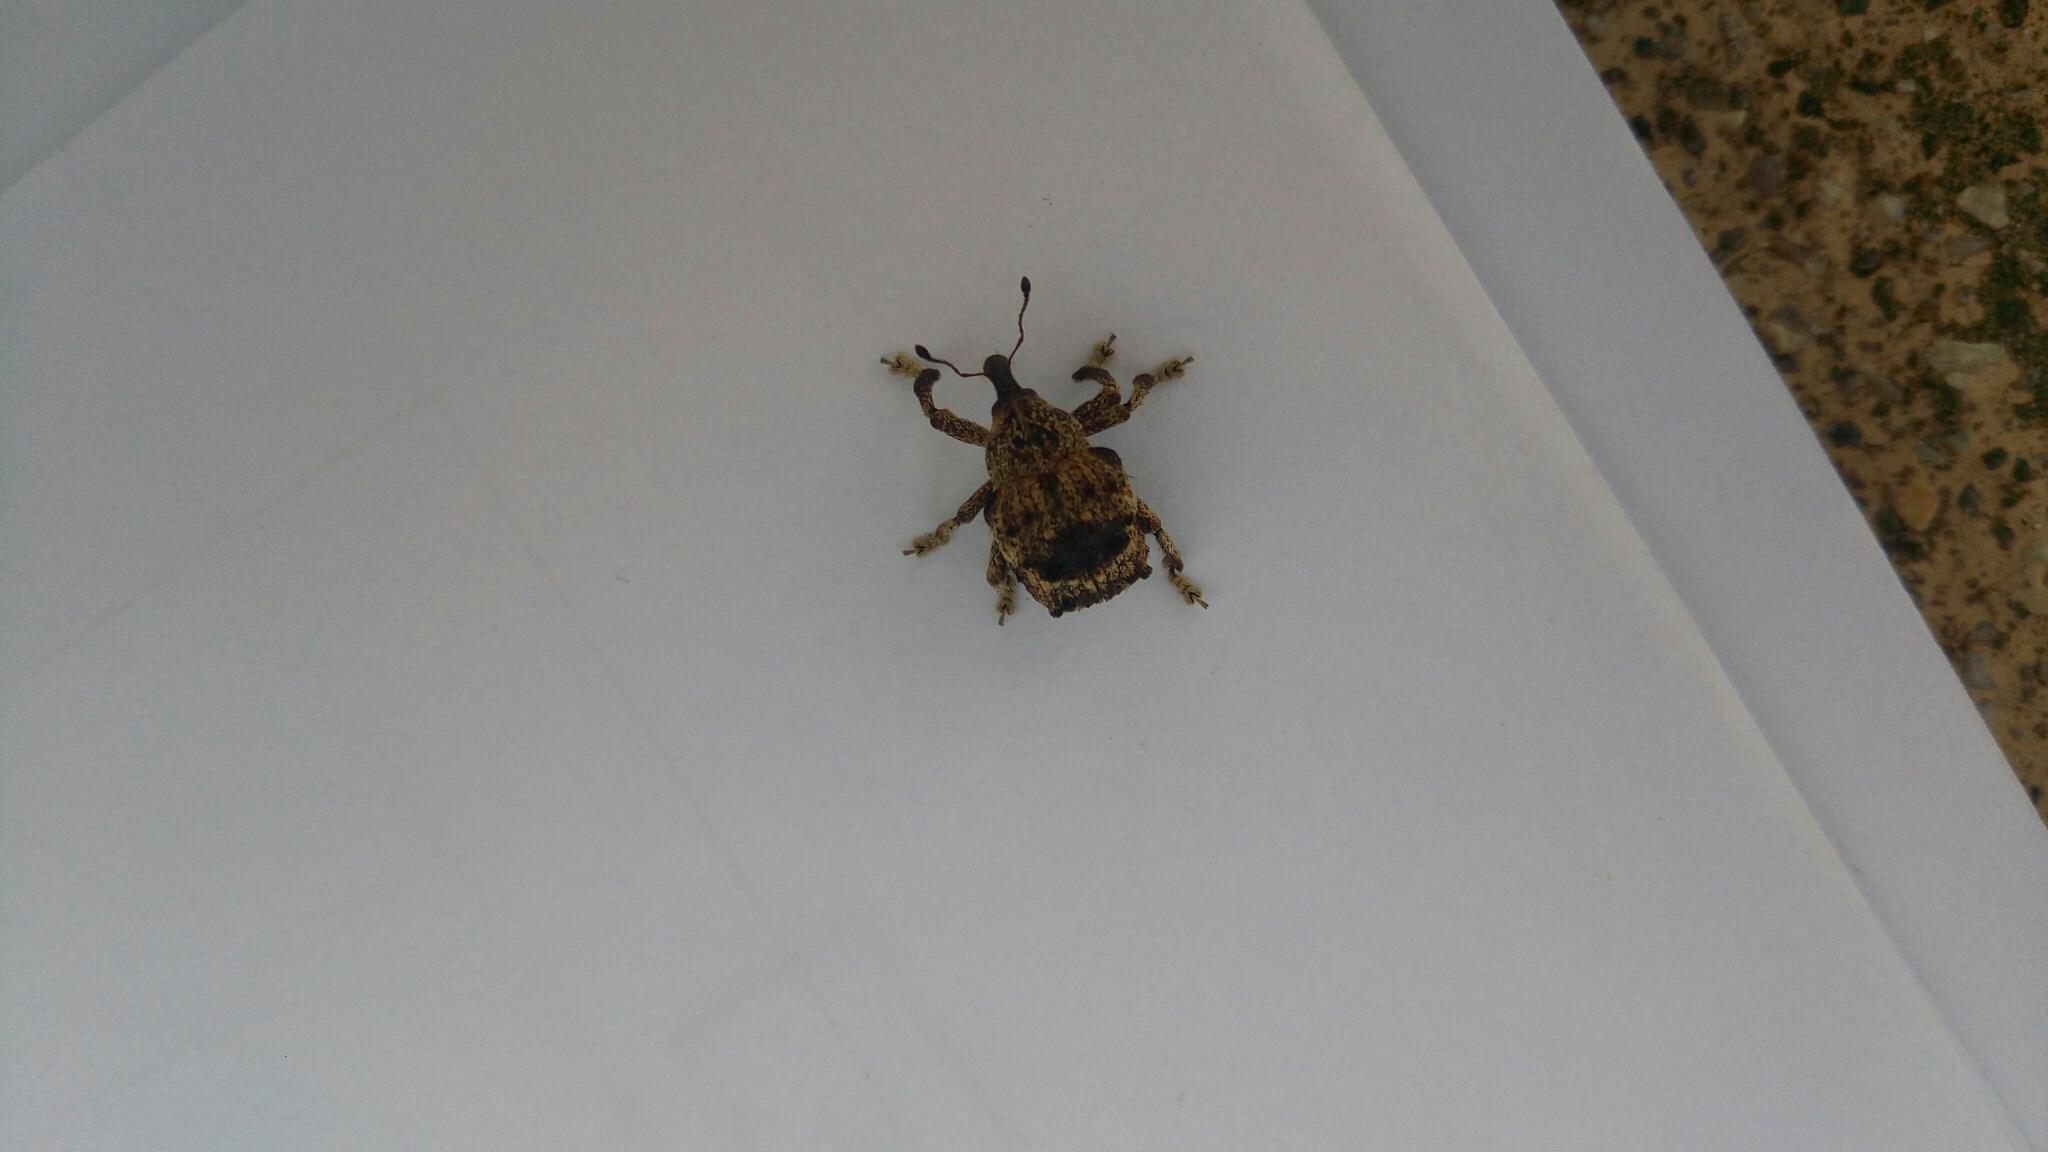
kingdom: Animalia
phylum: Arthropoda
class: Insecta
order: Coleoptera
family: Brachyceridae
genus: Desmidophorus
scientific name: Desmidophorus crassus
